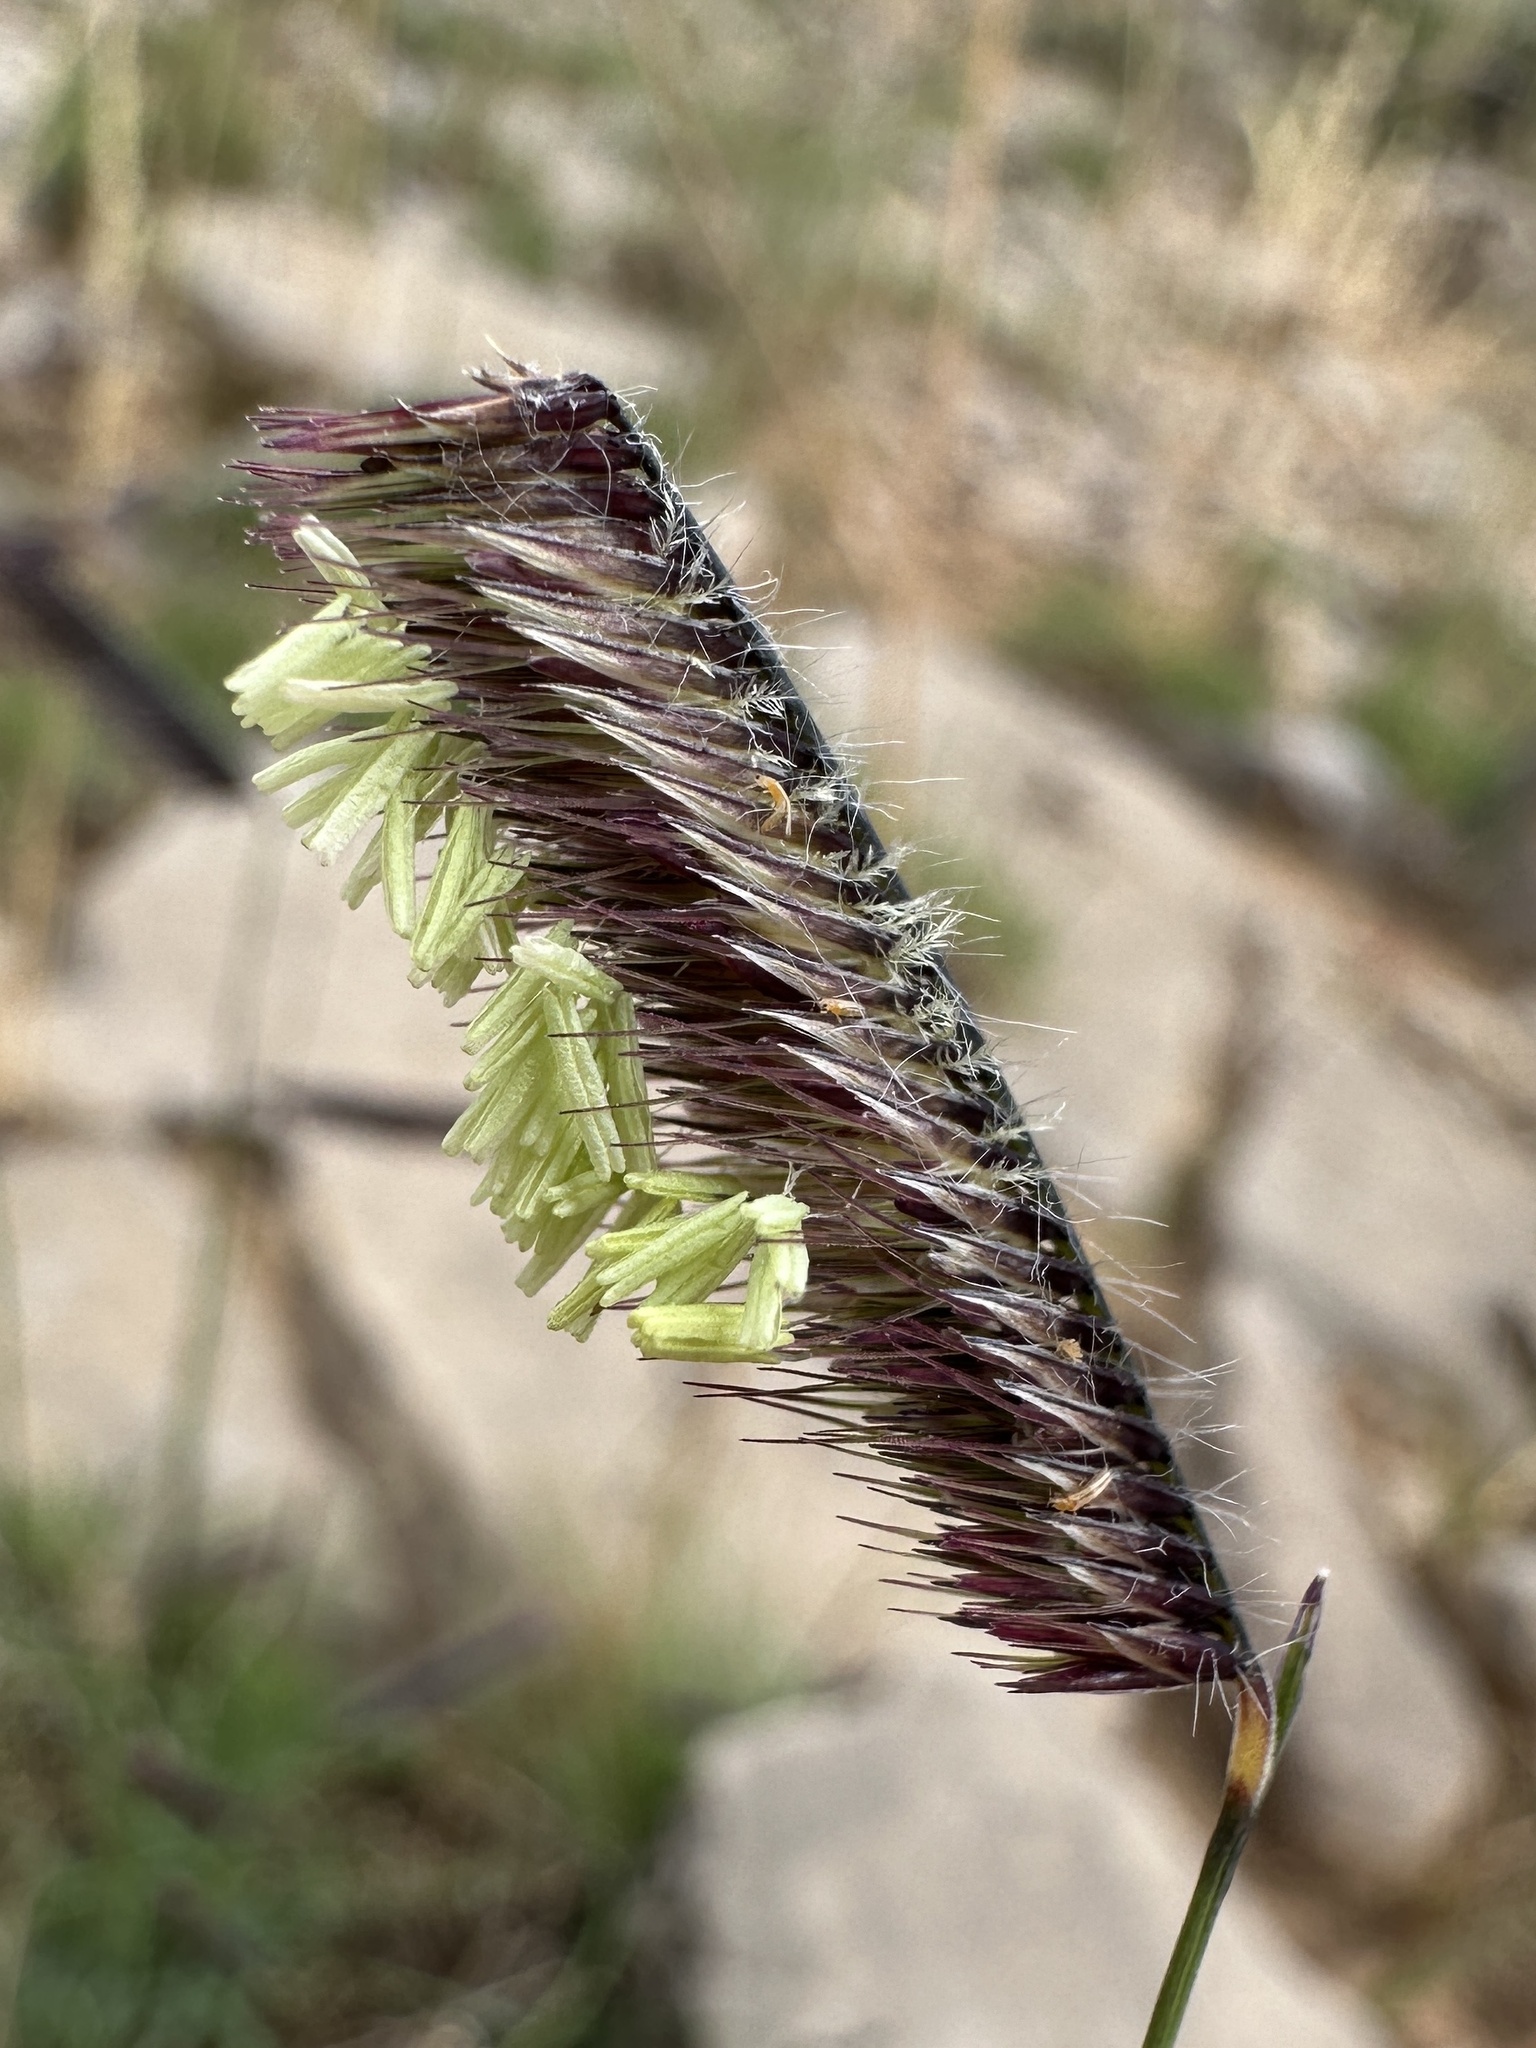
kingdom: Plantae
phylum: Tracheophyta
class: Liliopsida
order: Poales
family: Poaceae
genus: Bouteloua
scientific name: Bouteloua gracilis
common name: Blue grama
